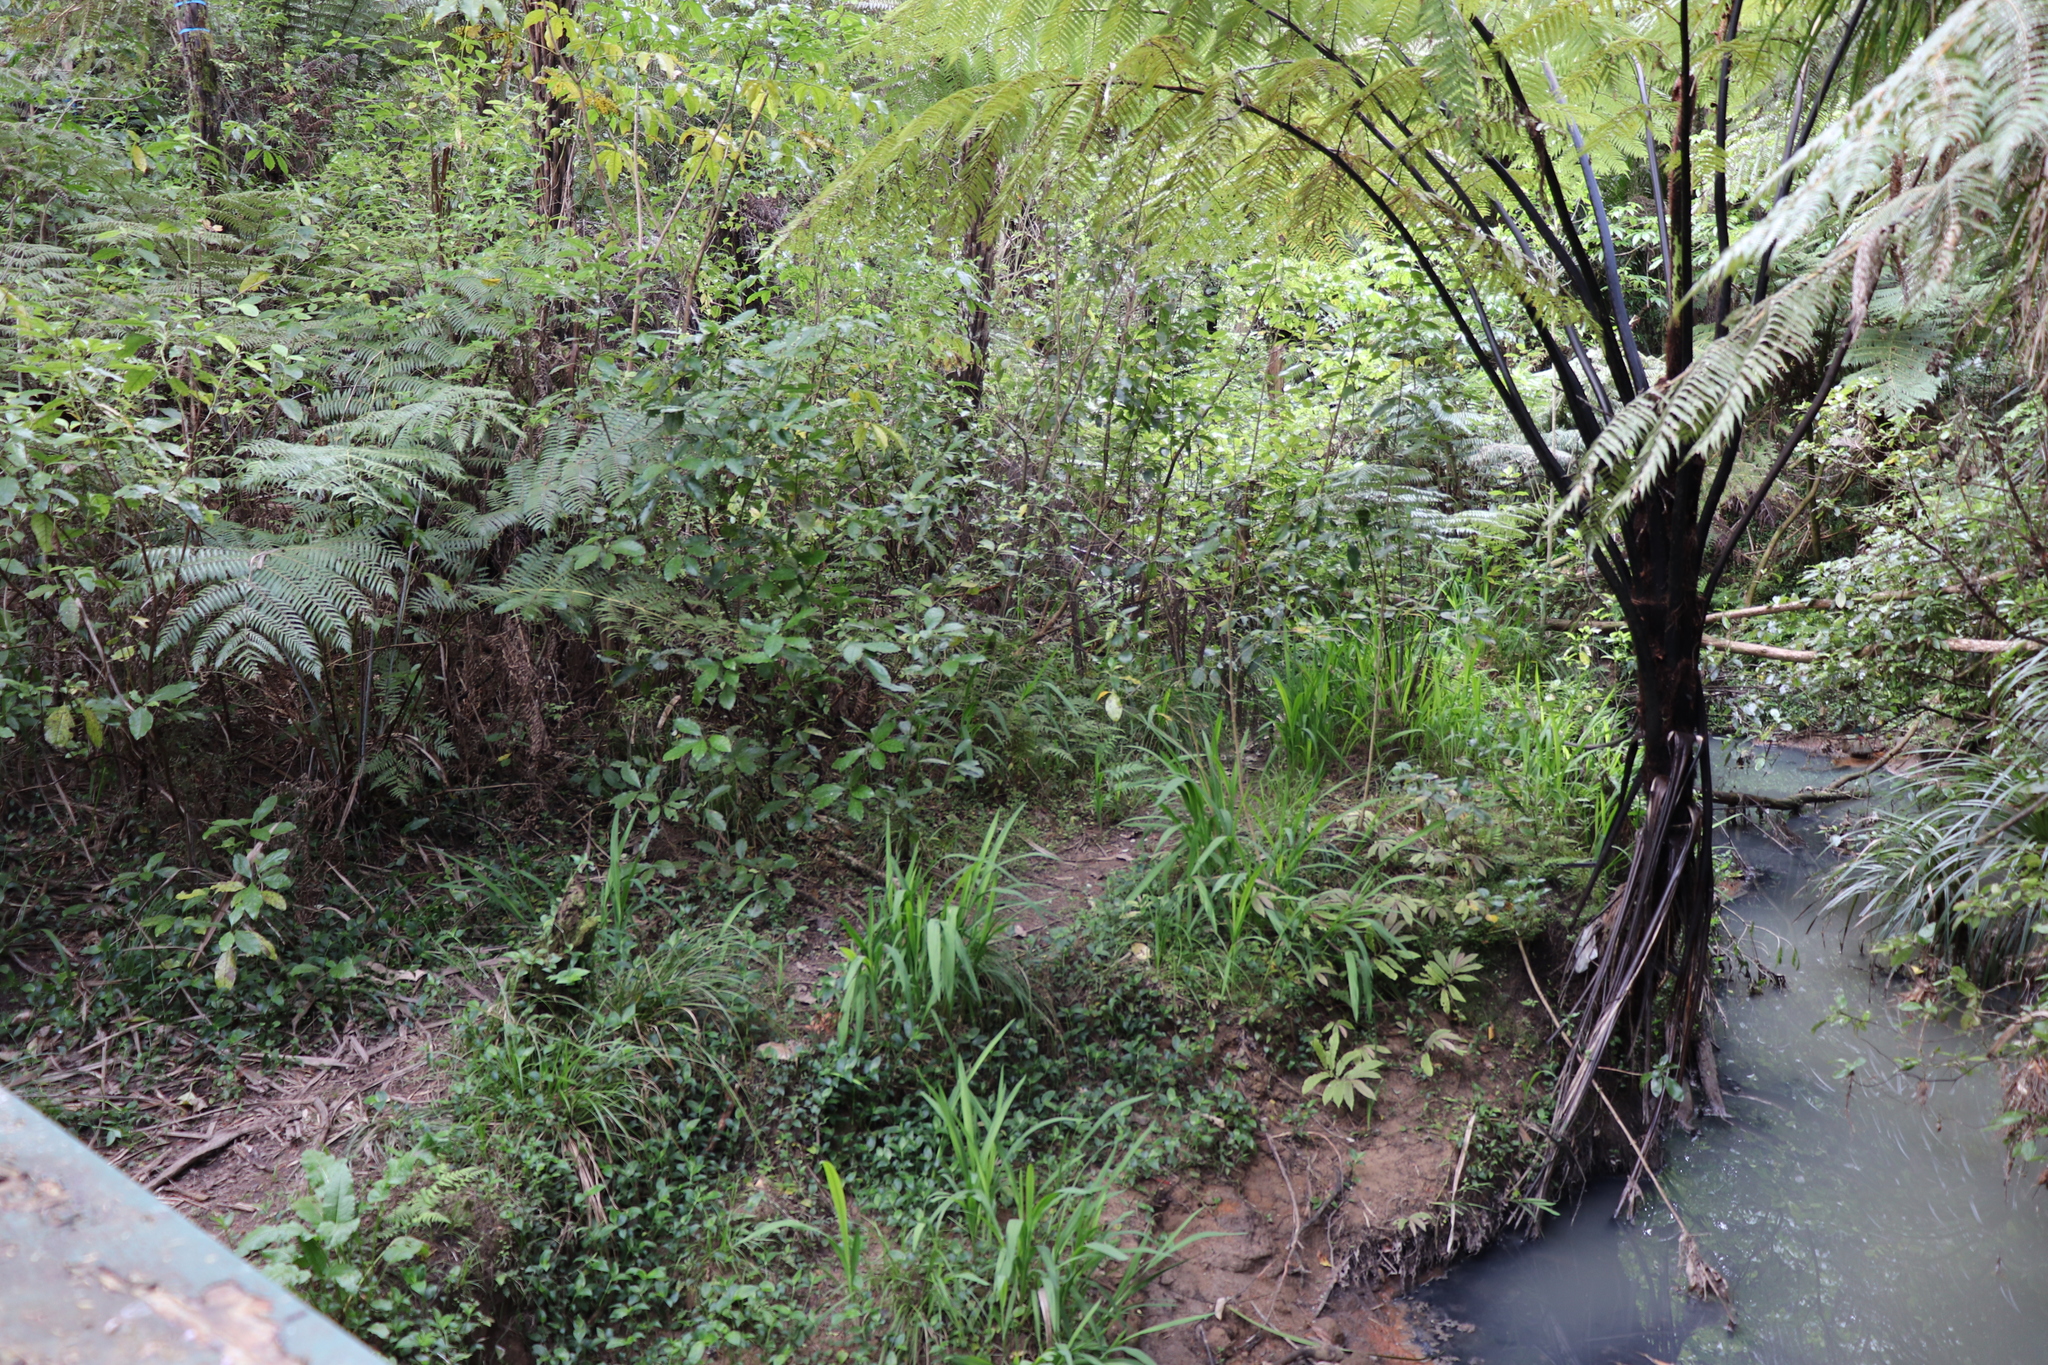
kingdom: Plantae
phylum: Tracheophyta
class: Liliopsida
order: Asparagales
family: Iridaceae
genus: Crocosmia
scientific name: Crocosmia crocosmiiflora
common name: Montbretia
